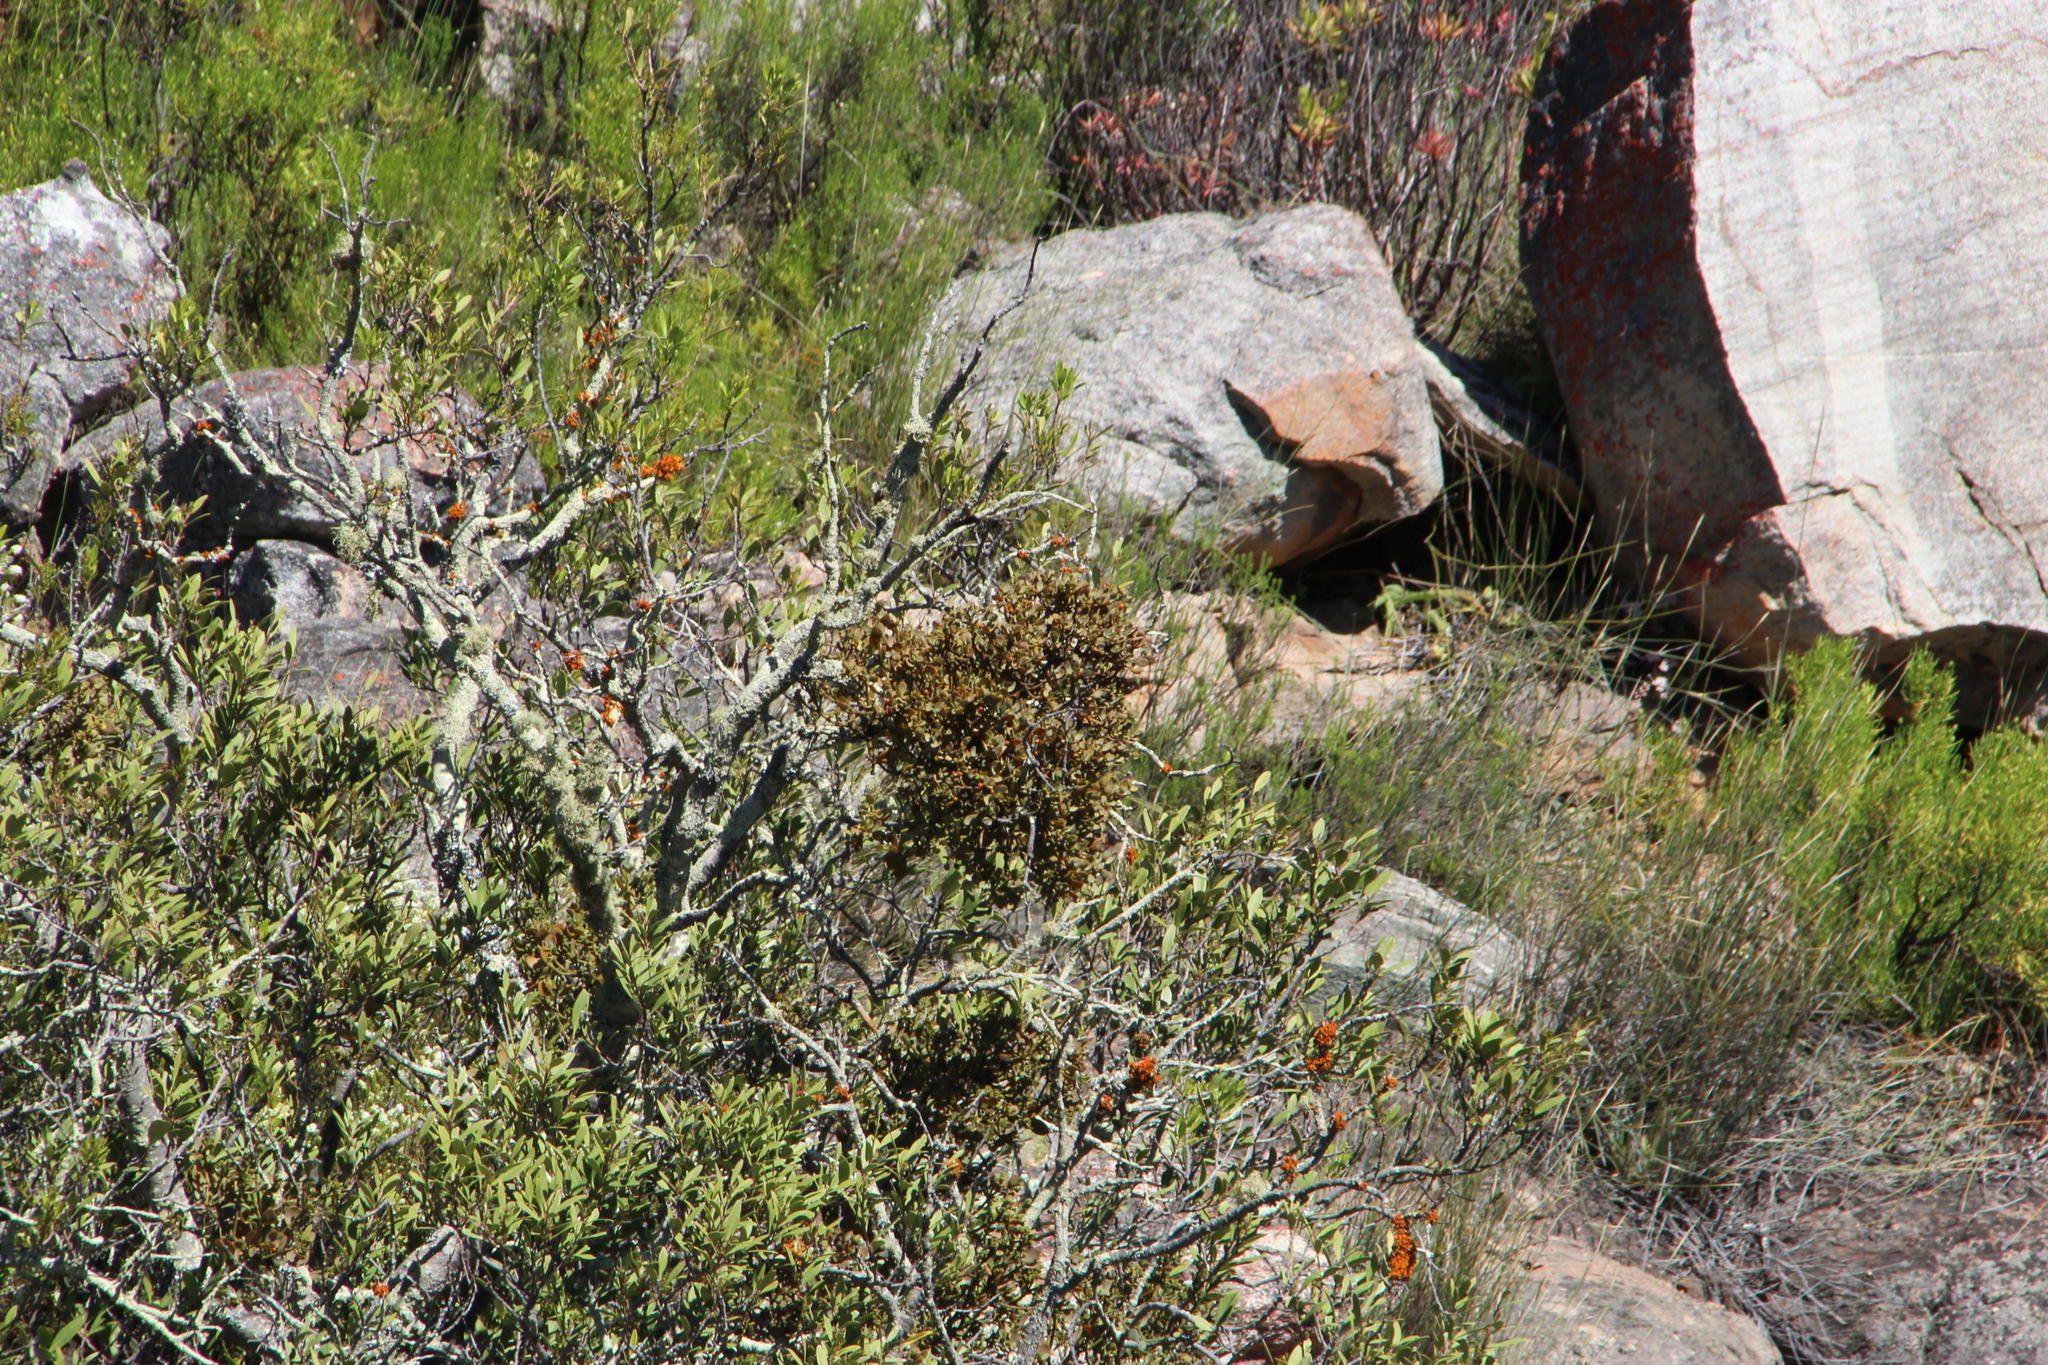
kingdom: Plantae
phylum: Tracheophyta
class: Magnoliopsida
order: Celastrales
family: Celastraceae
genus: Gymnosporia
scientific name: Gymnosporia laurina
